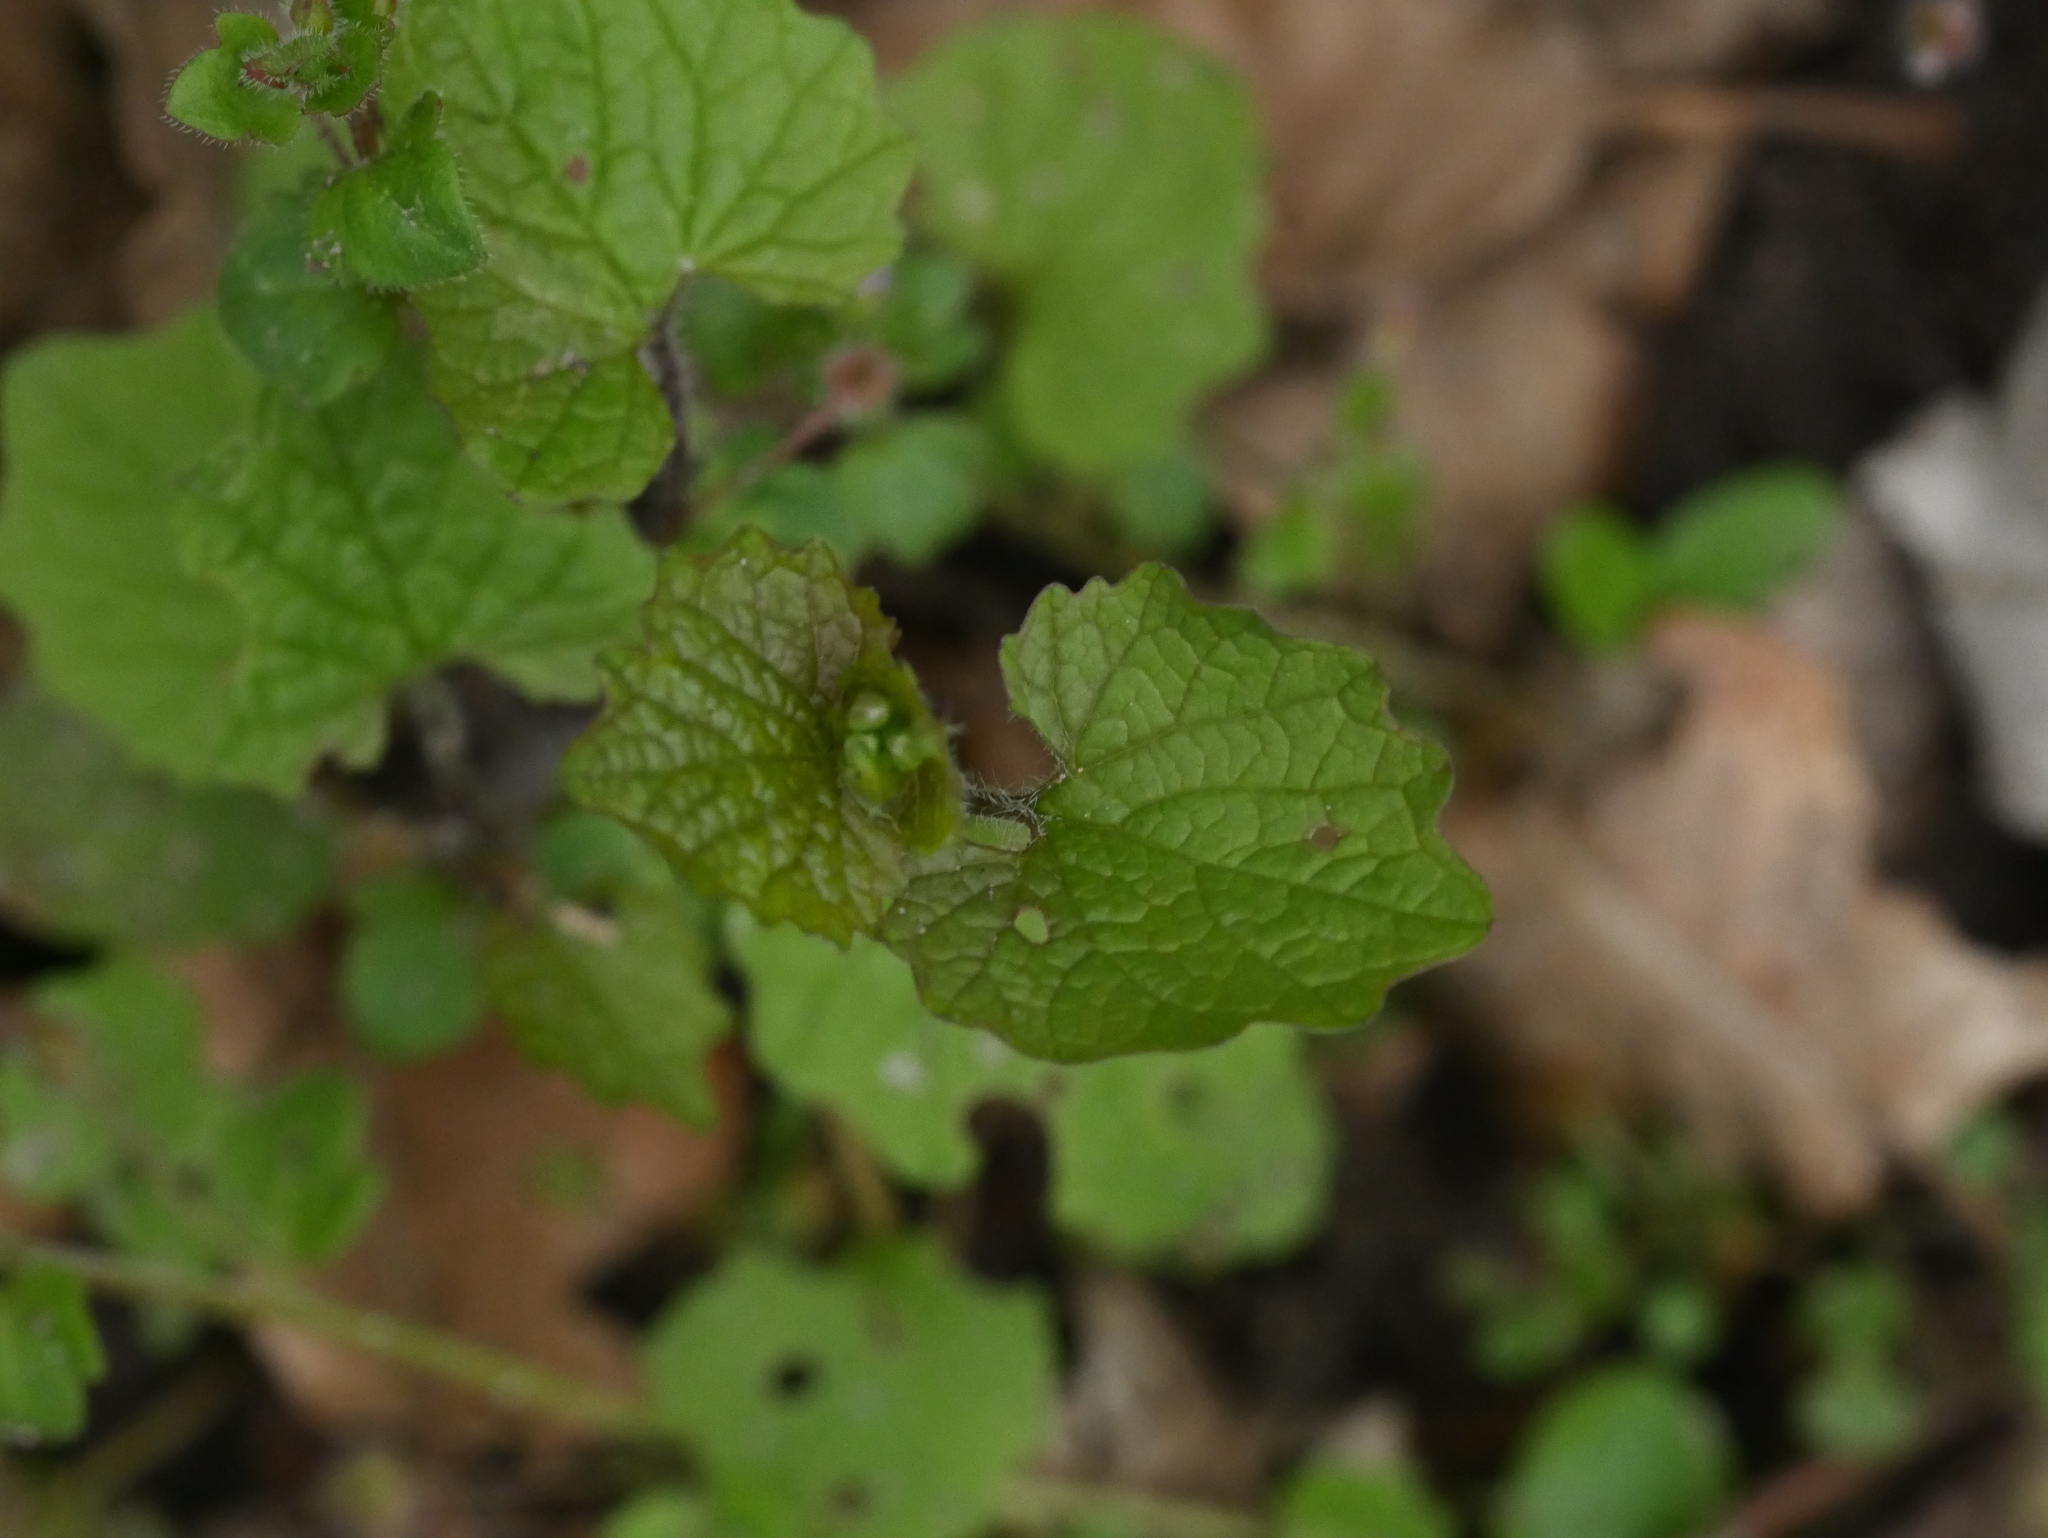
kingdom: Plantae
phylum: Tracheophyta
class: Magnoliopsida
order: Brassicales
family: Brassicaceae
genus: Alliaria
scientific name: Alliaria petiolata
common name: Garlic mustard
